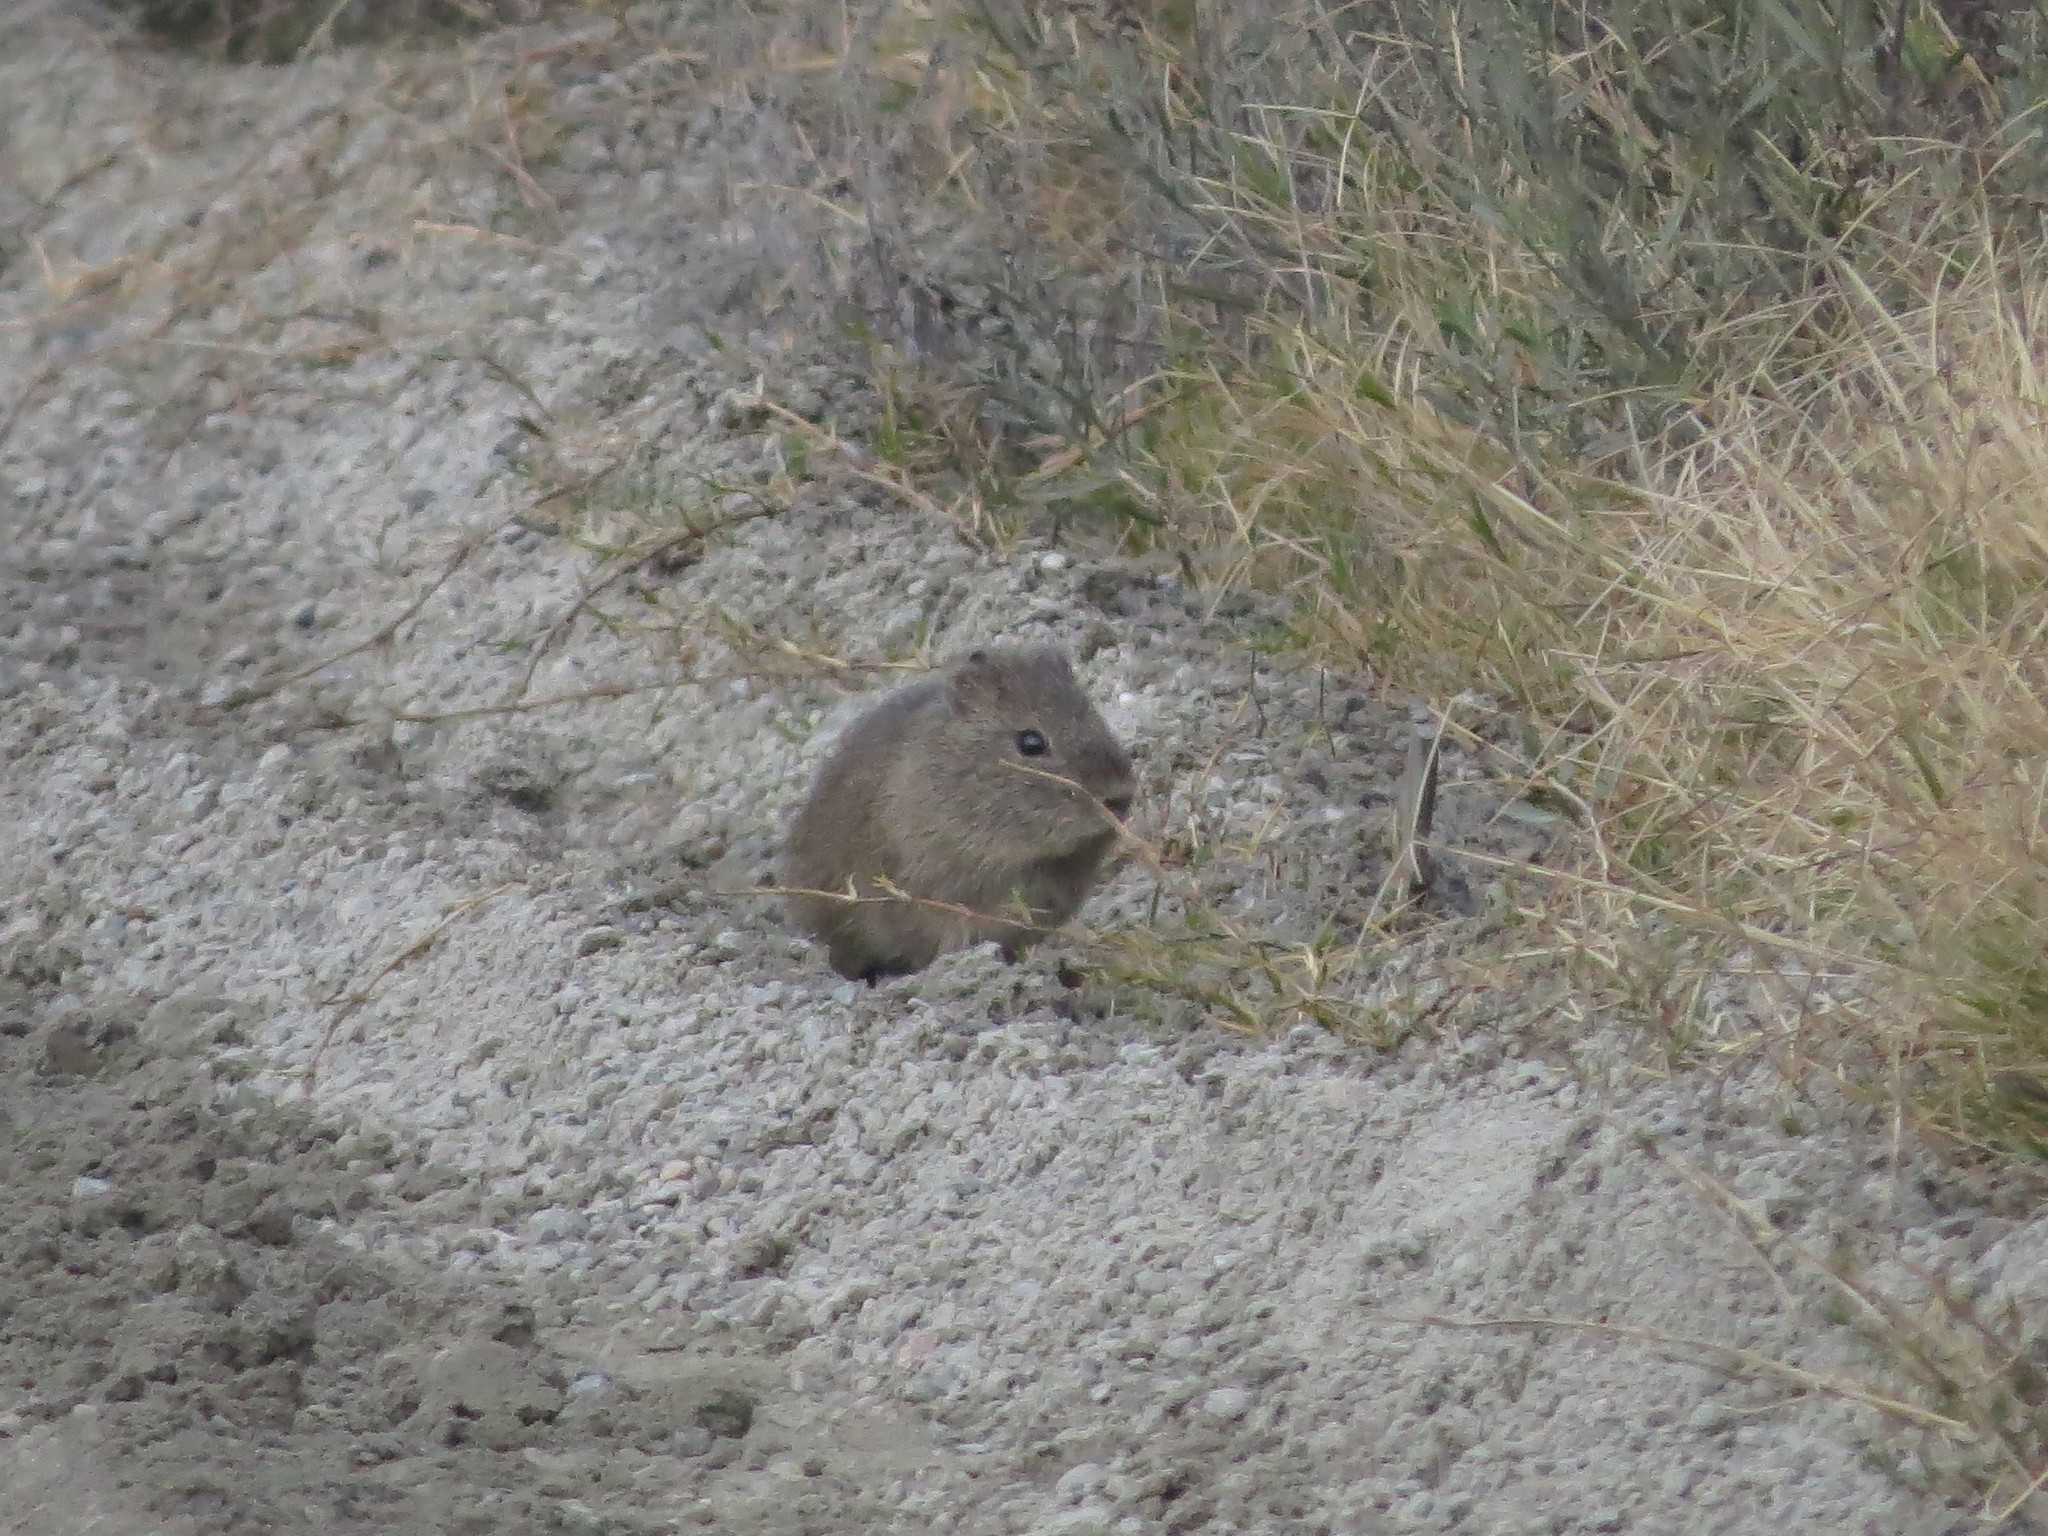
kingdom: Animalia
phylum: Chordata
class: Mammalia
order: Rodentia
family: Caviidae
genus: Cavia
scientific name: Cavia aperea
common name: Brazilian guinea pig
